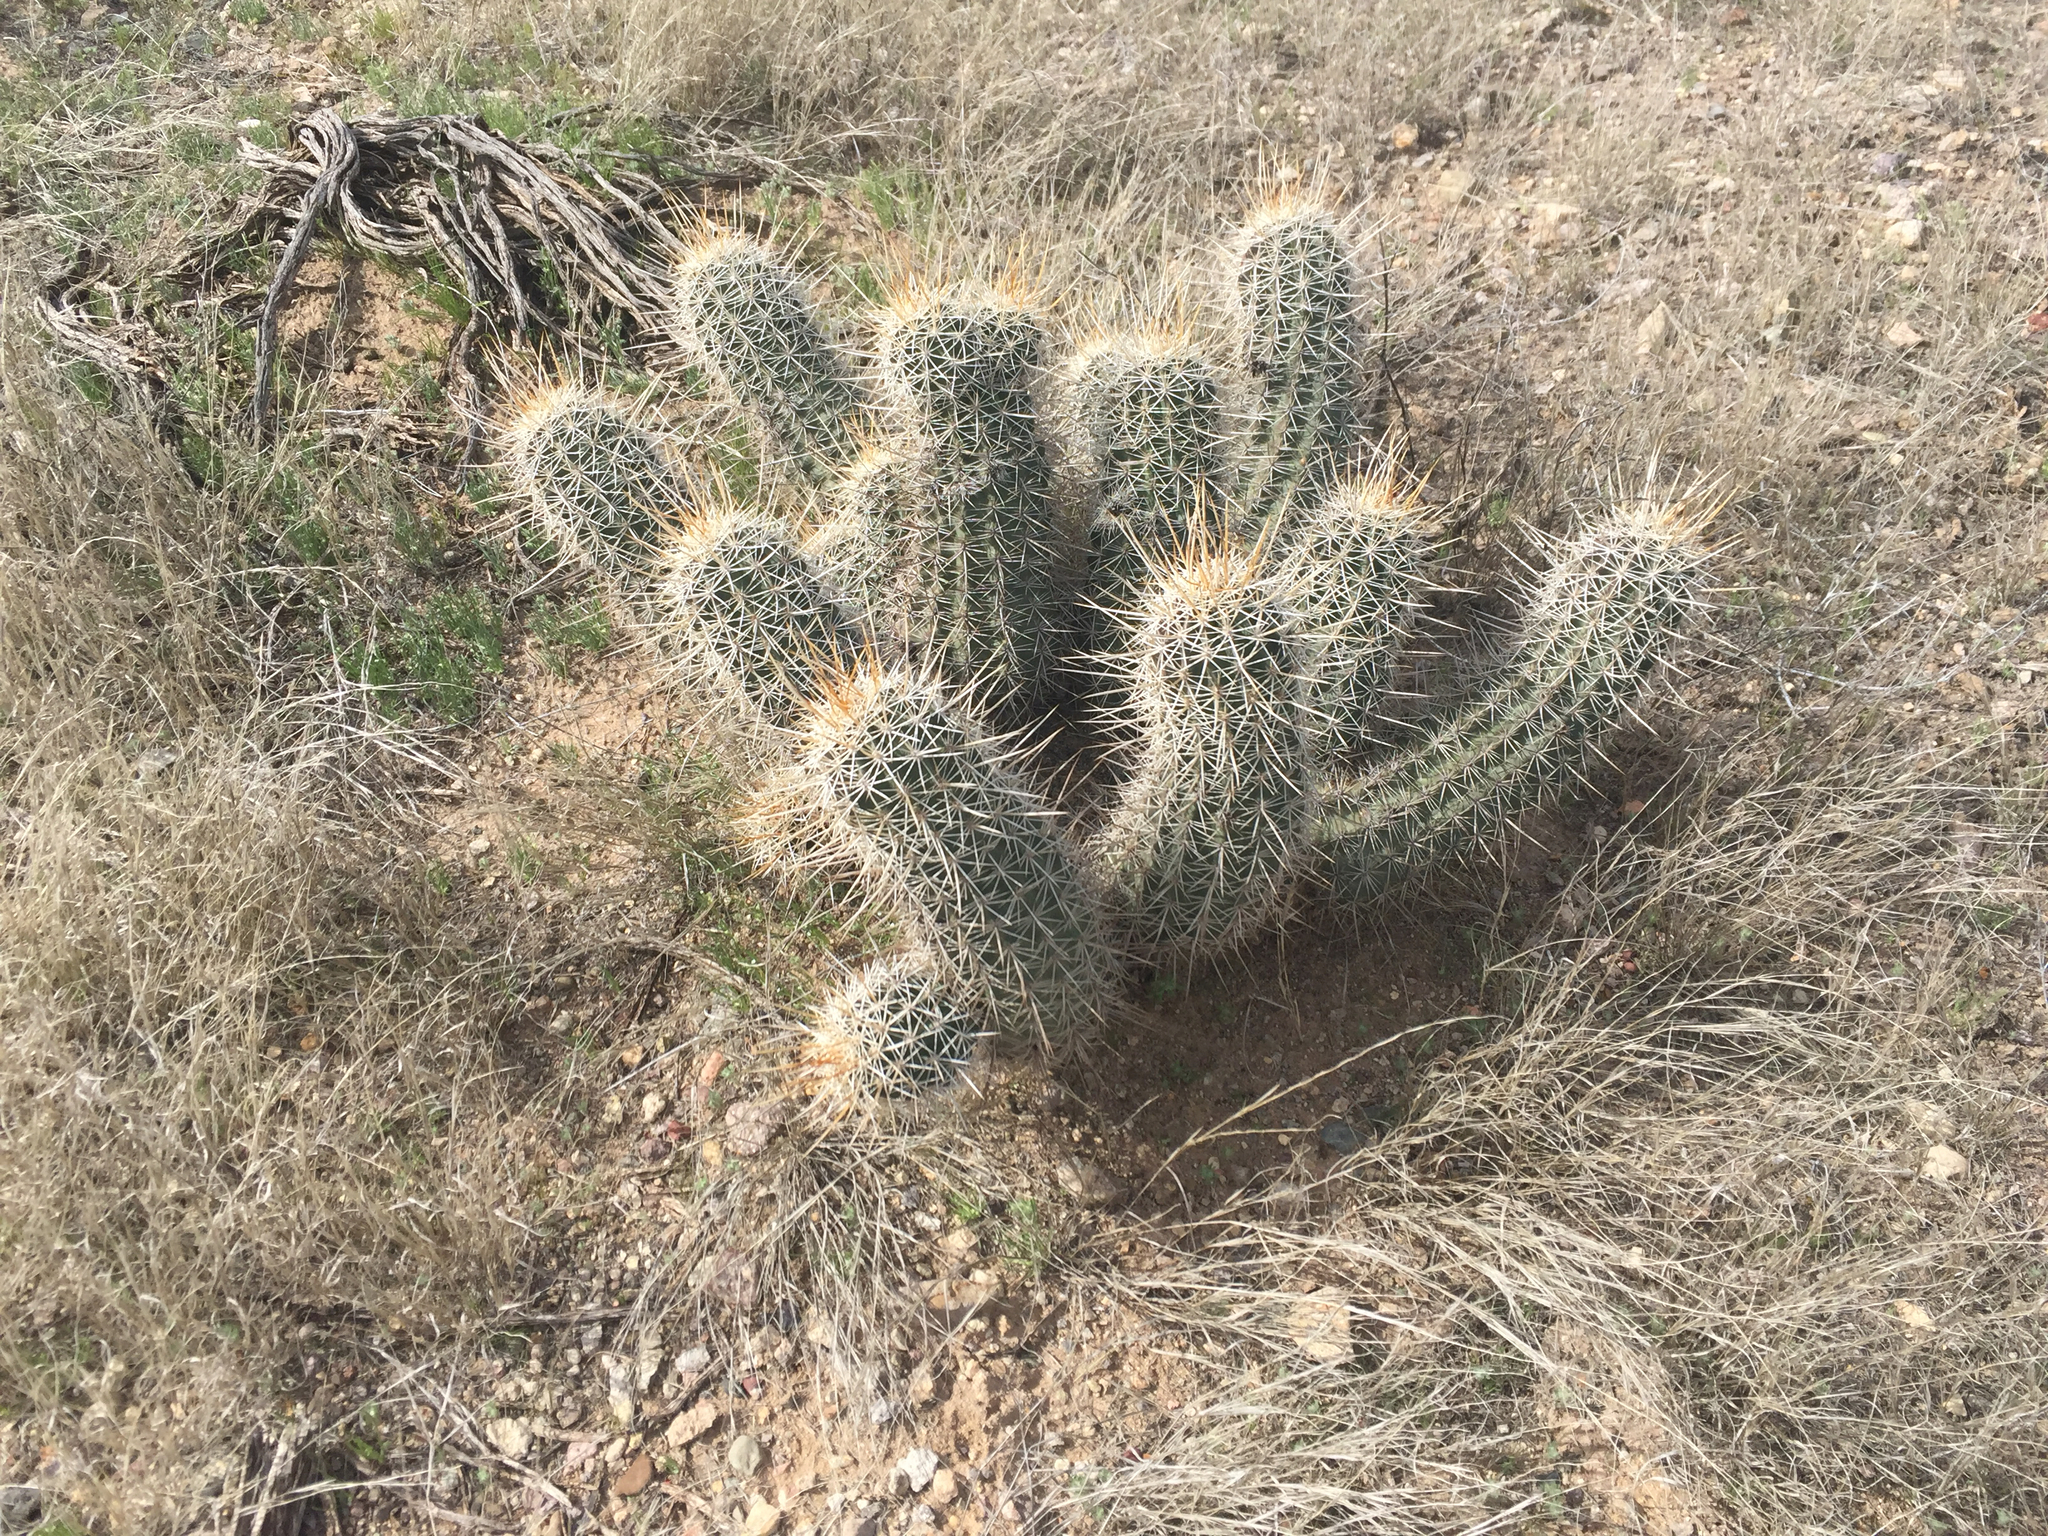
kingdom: Plantae
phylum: Tracheophyta
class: Magnoliopsida
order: Caryophyllales
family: Cactaceae
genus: Echinocereus
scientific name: Echinocereus fasciculatus
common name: Bundle hedgehog
